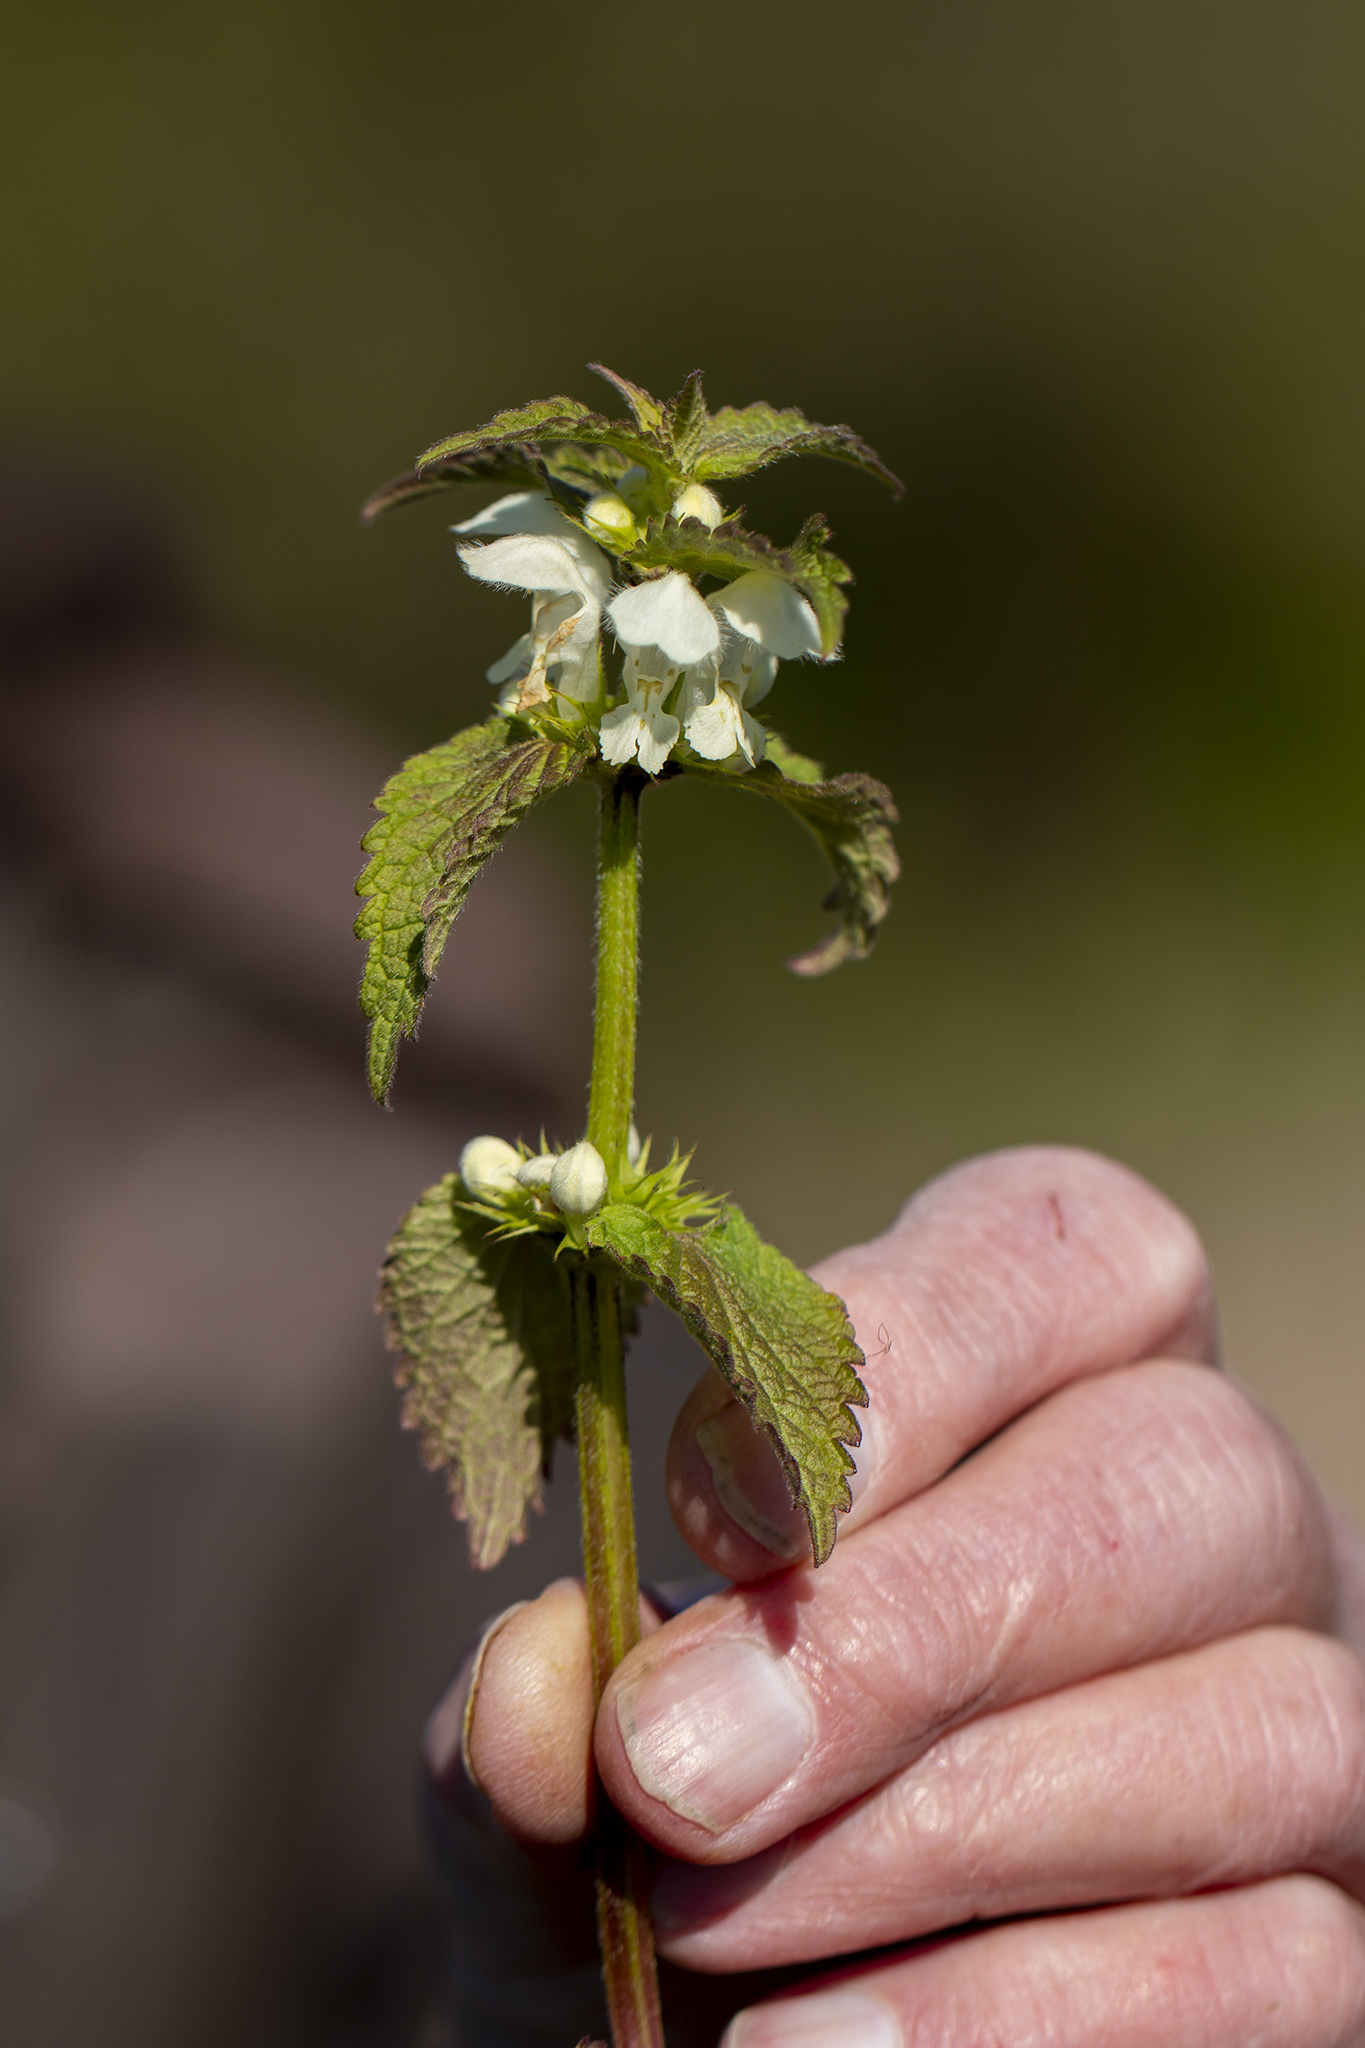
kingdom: Plantae
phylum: Tracheophyta
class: Magnoliopsida
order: Lamiales
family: Lamiaceae
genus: Lamium
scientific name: Lamium album
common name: White dead-nettle
